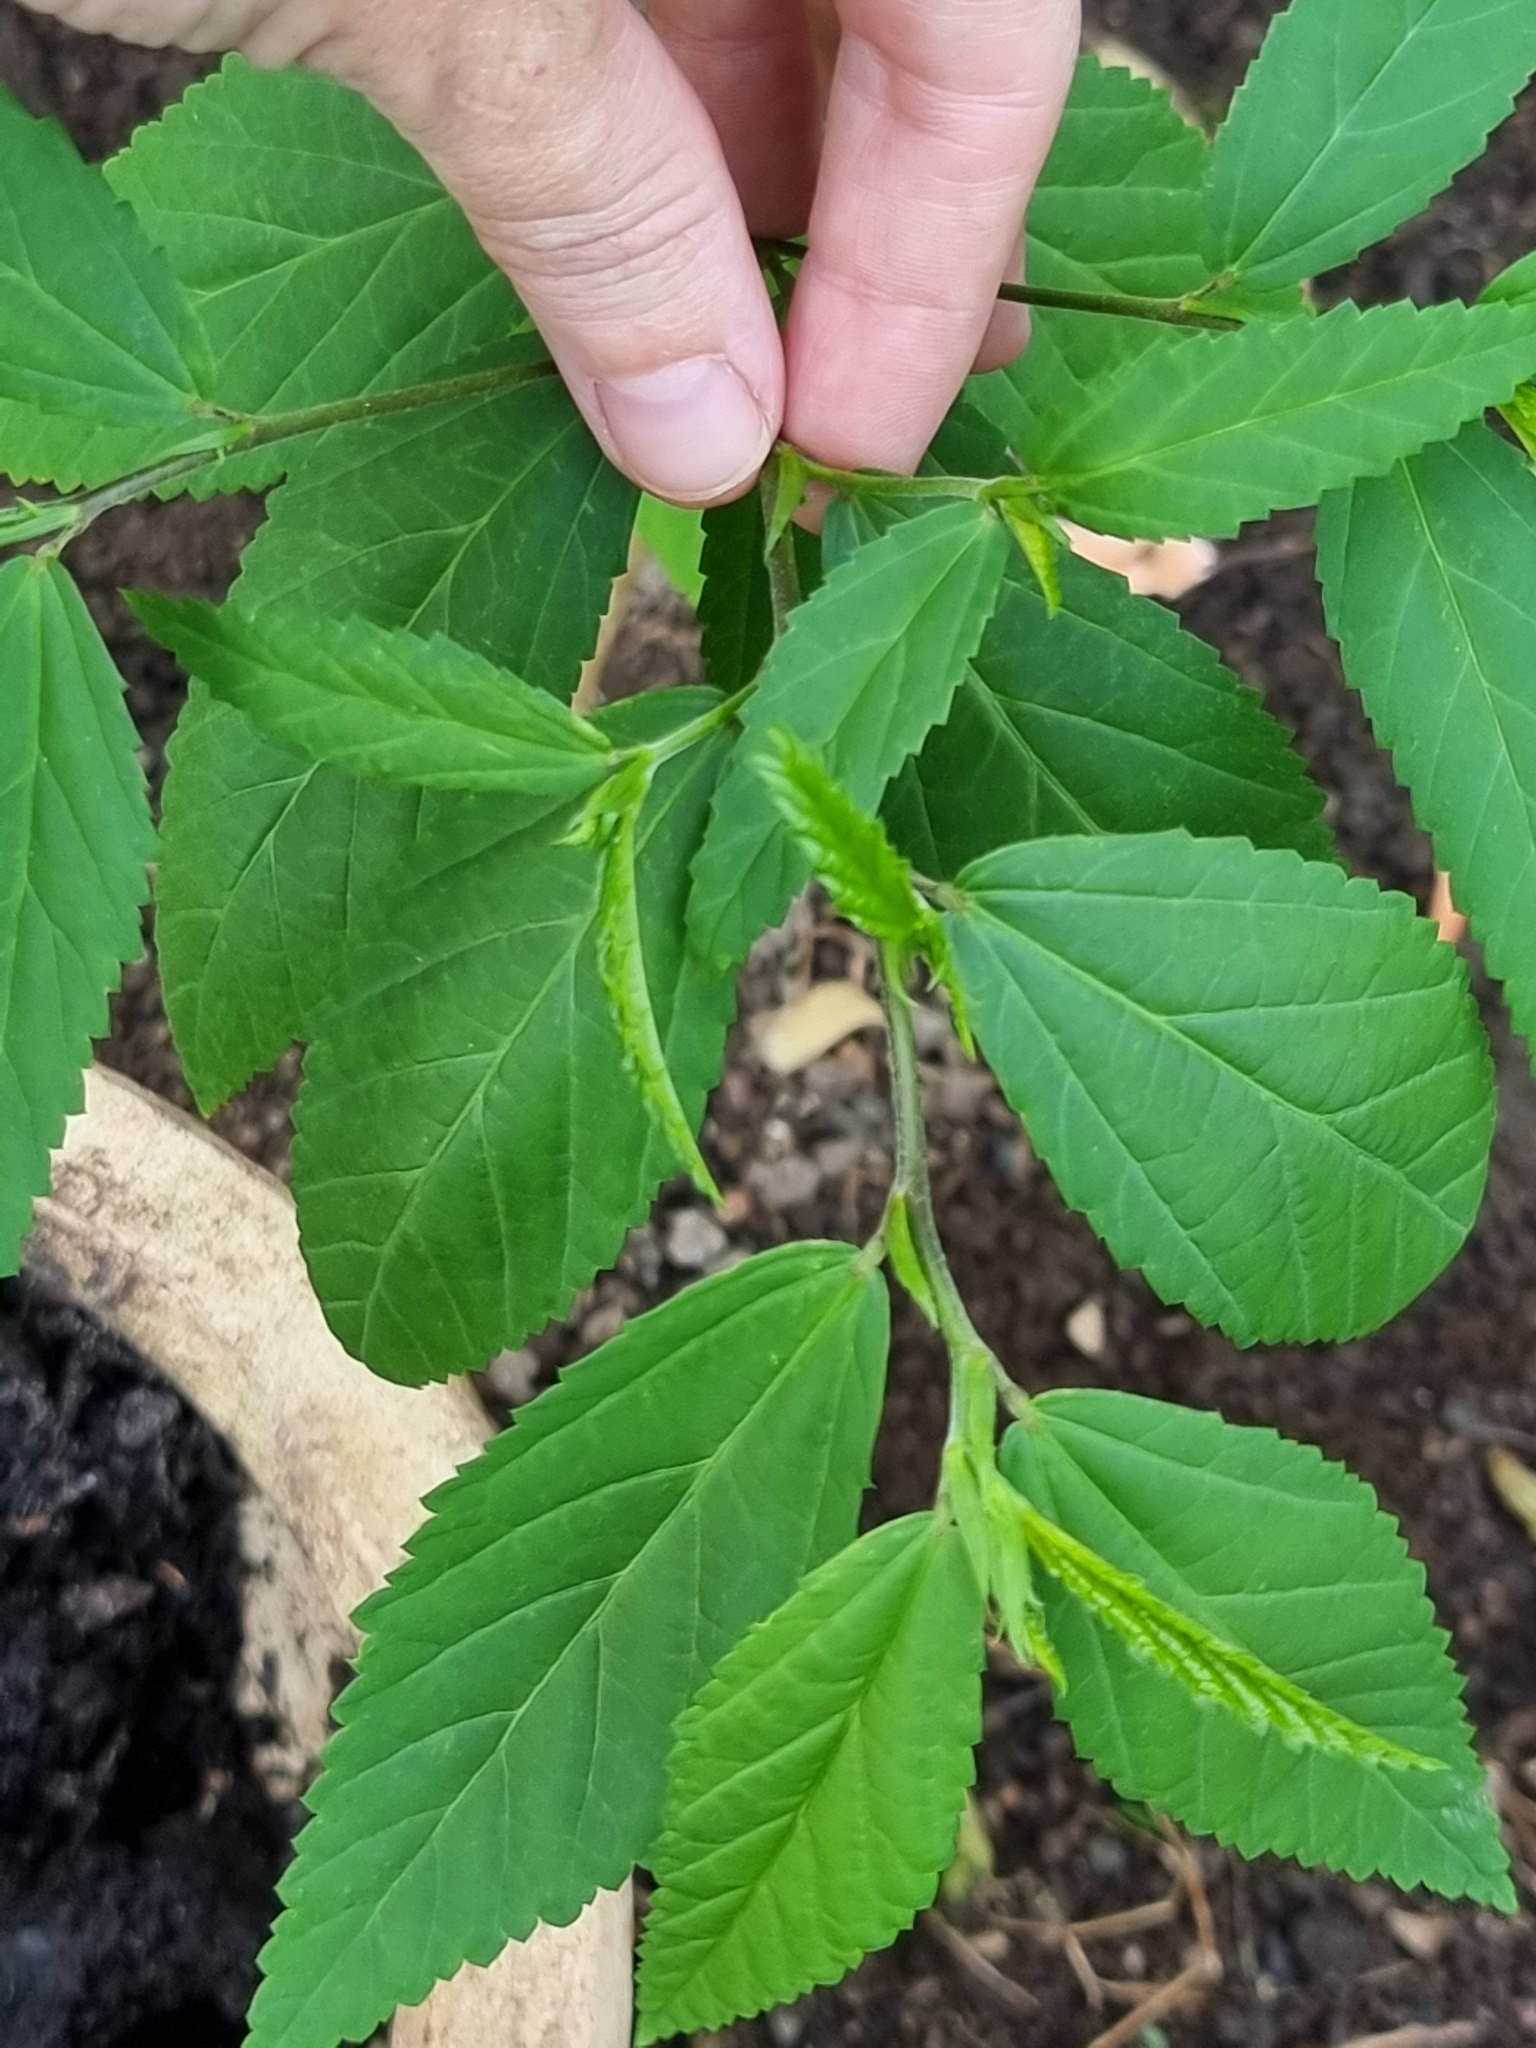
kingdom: Plantae
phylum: Tracheophyta
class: Magnoliopsida
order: Malvales
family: Malvaceae
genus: Sida
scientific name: Sida acuta
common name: Common wireweed
